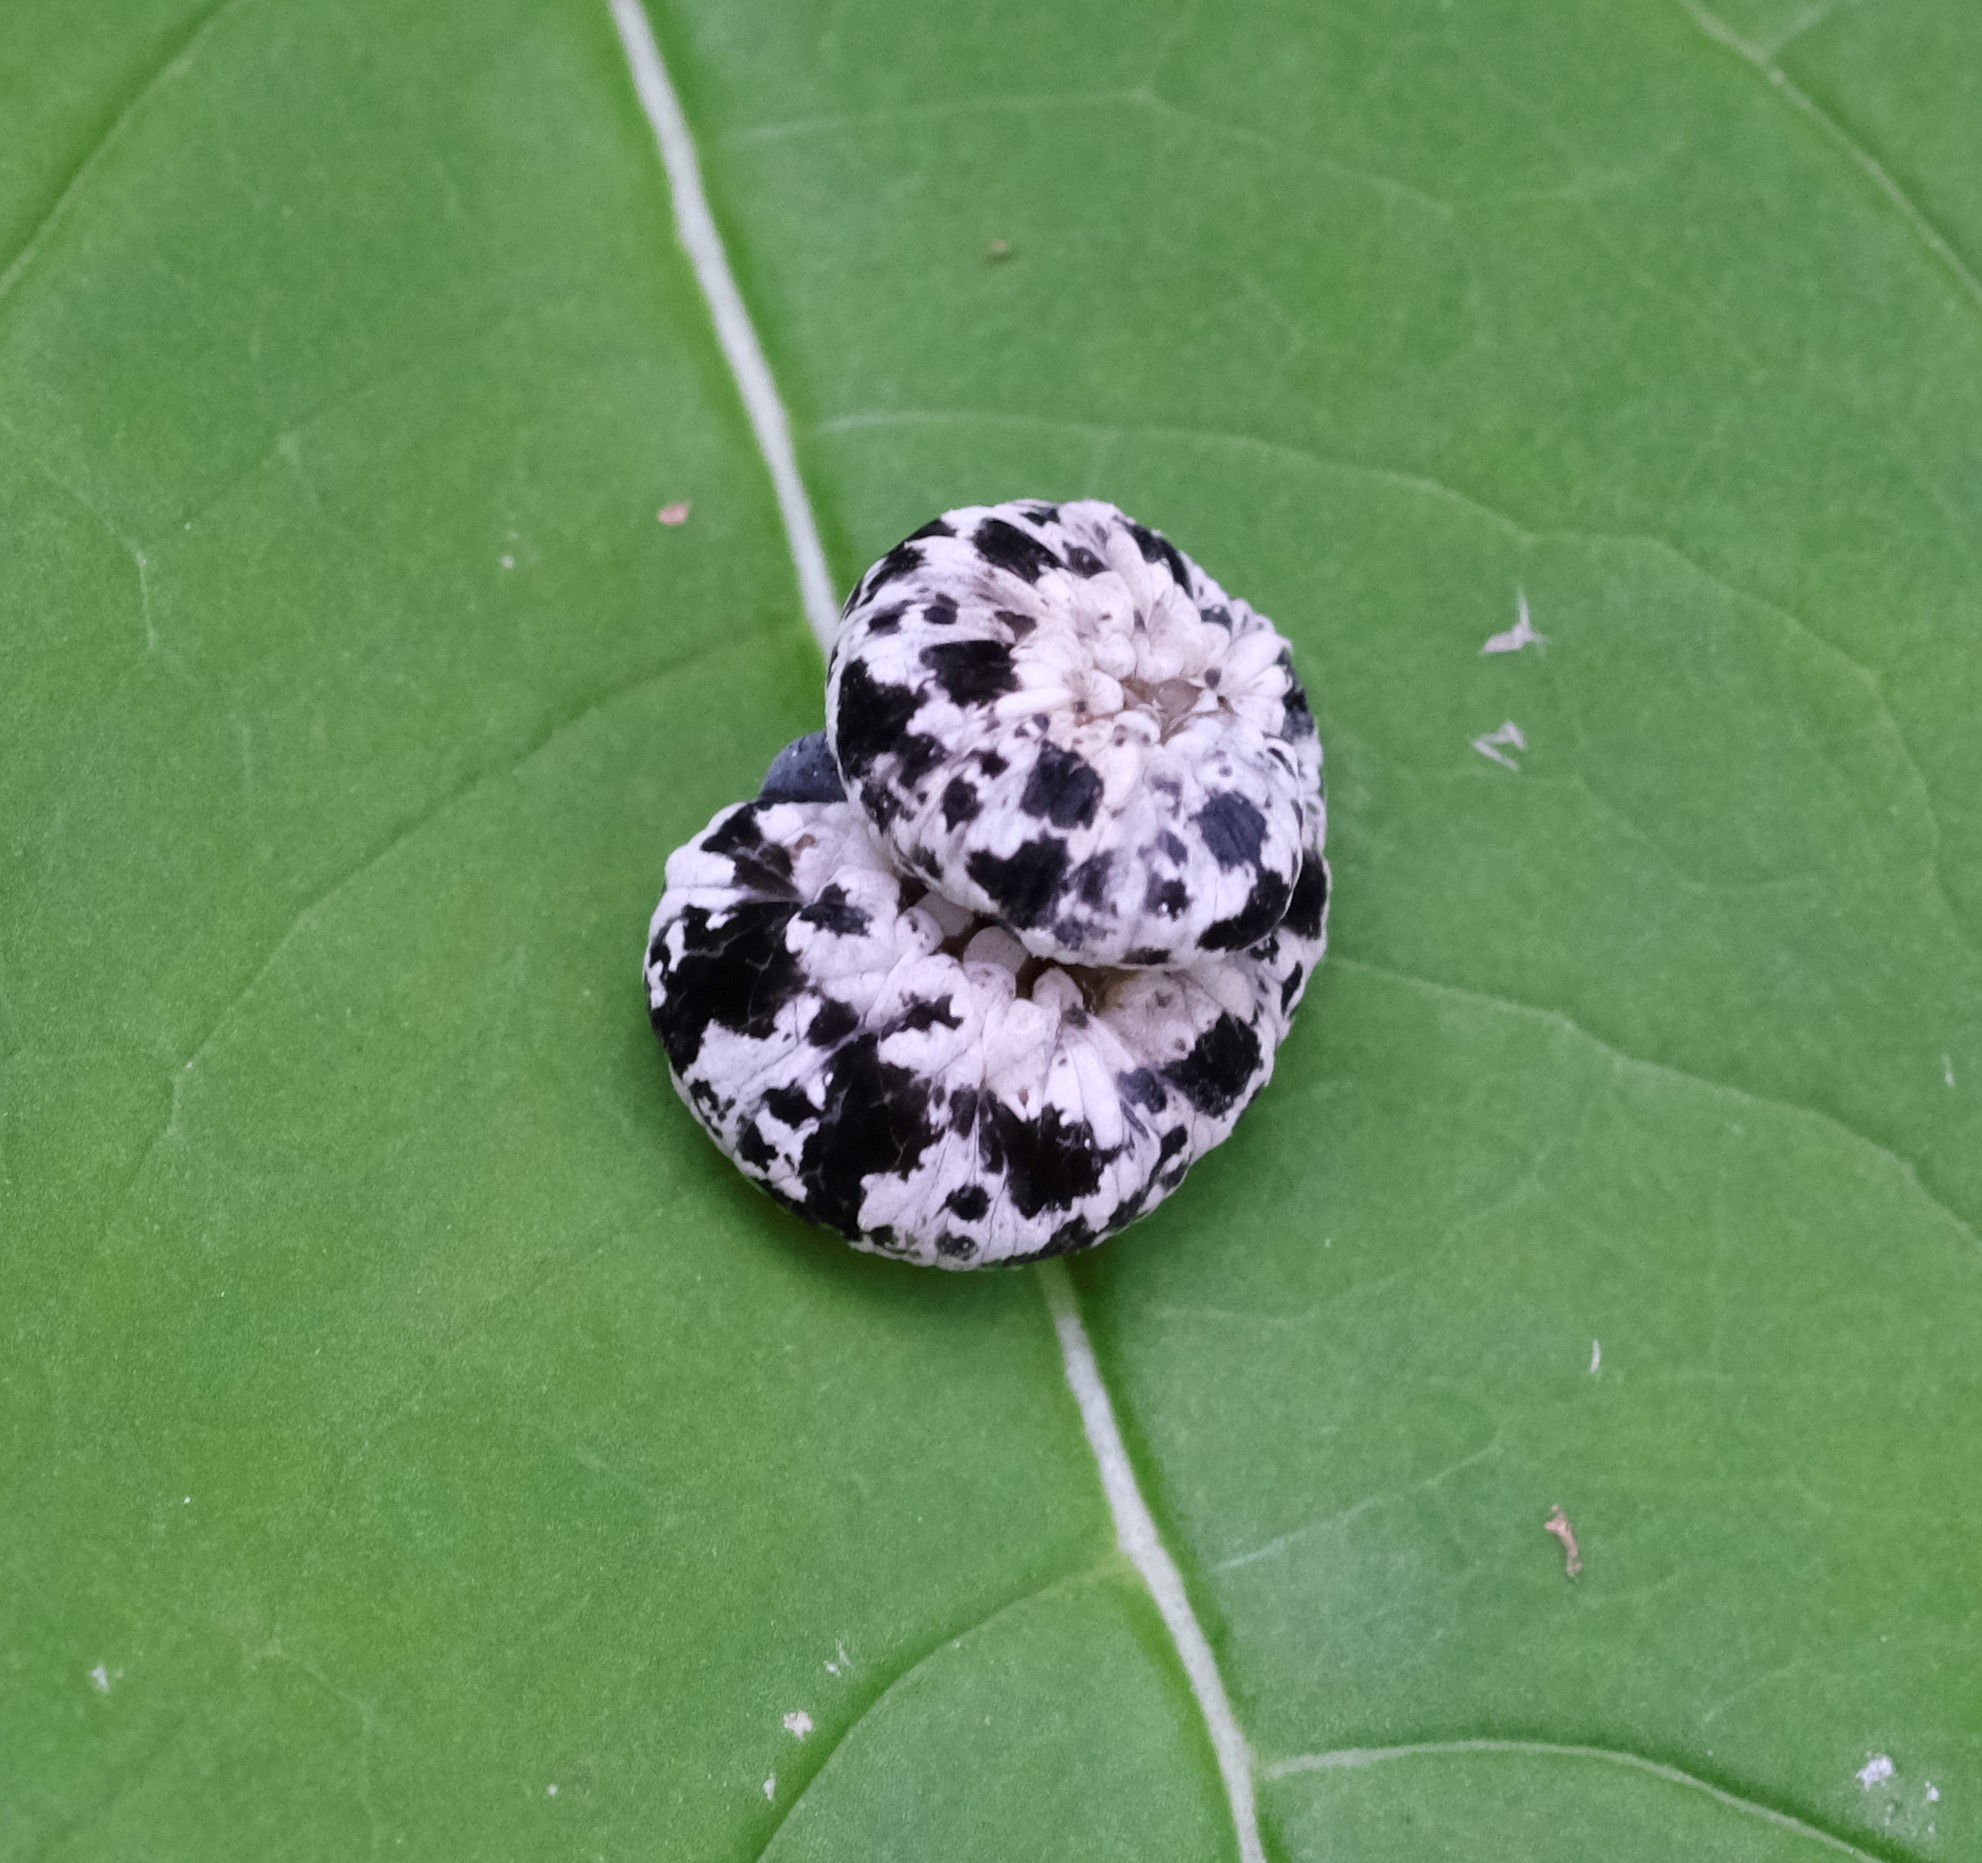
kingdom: Animalia
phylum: Arthropoda
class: Insecta
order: Hymenoptera
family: Tenthredinidae
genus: Tenthredo
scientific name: Tenthredo
